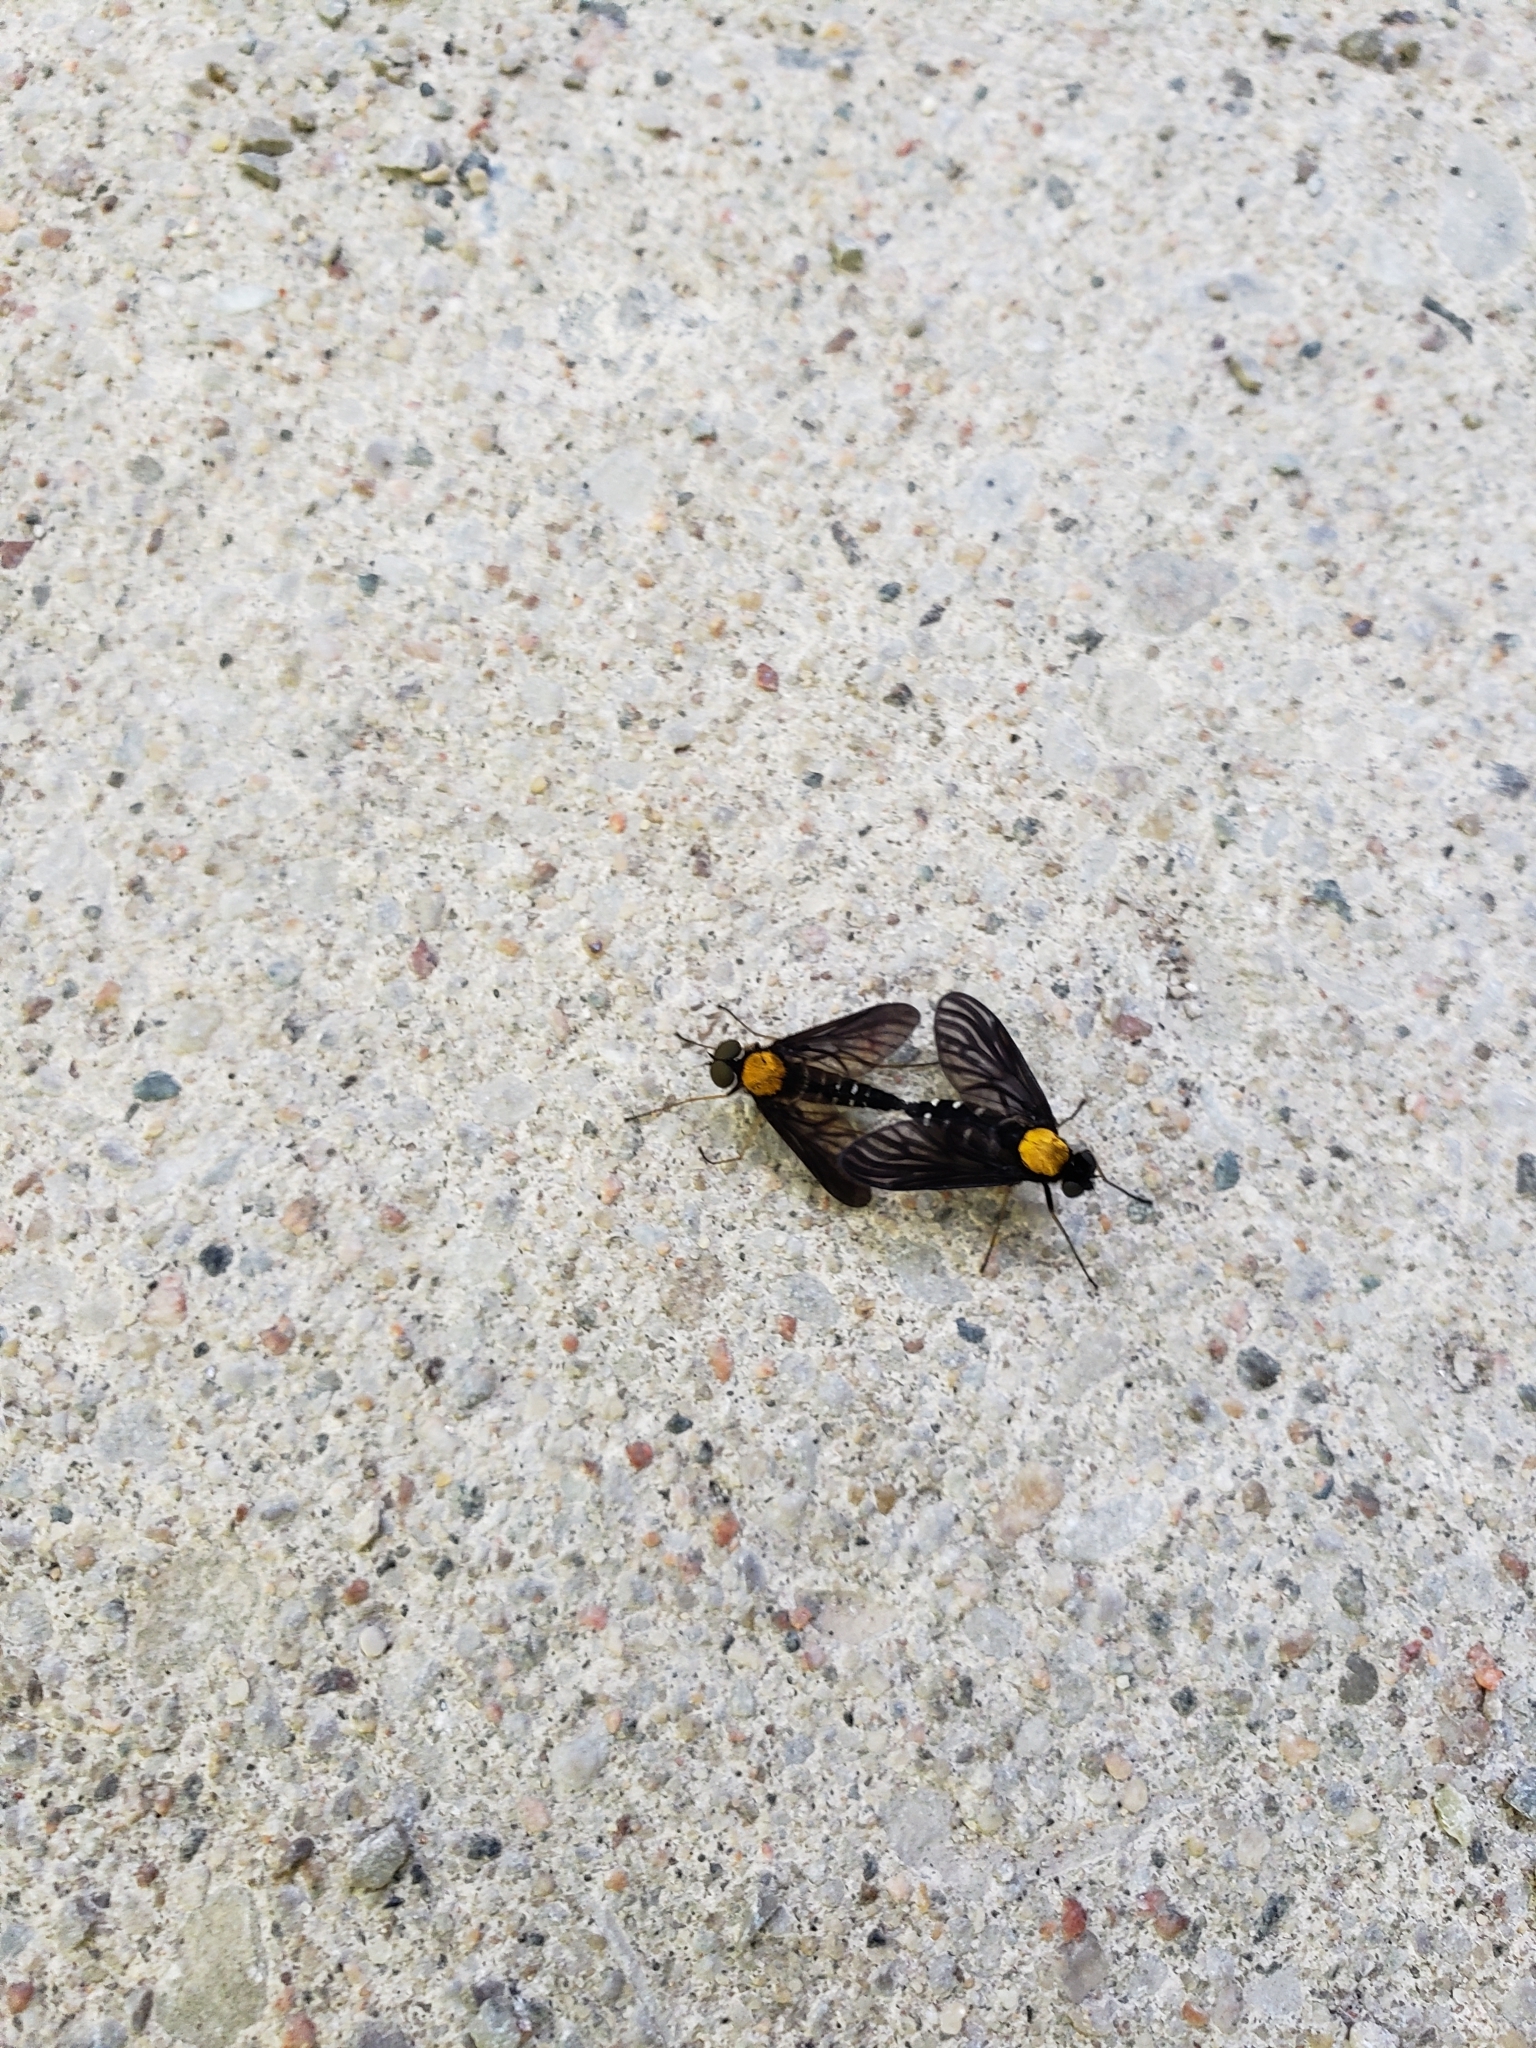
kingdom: Animalia
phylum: Arthropoda
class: Insecta
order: Diptera
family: Rhagionidae
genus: Chrysopilus
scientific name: Chrysopilus thoracicus
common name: Golden-backed snipe fly
